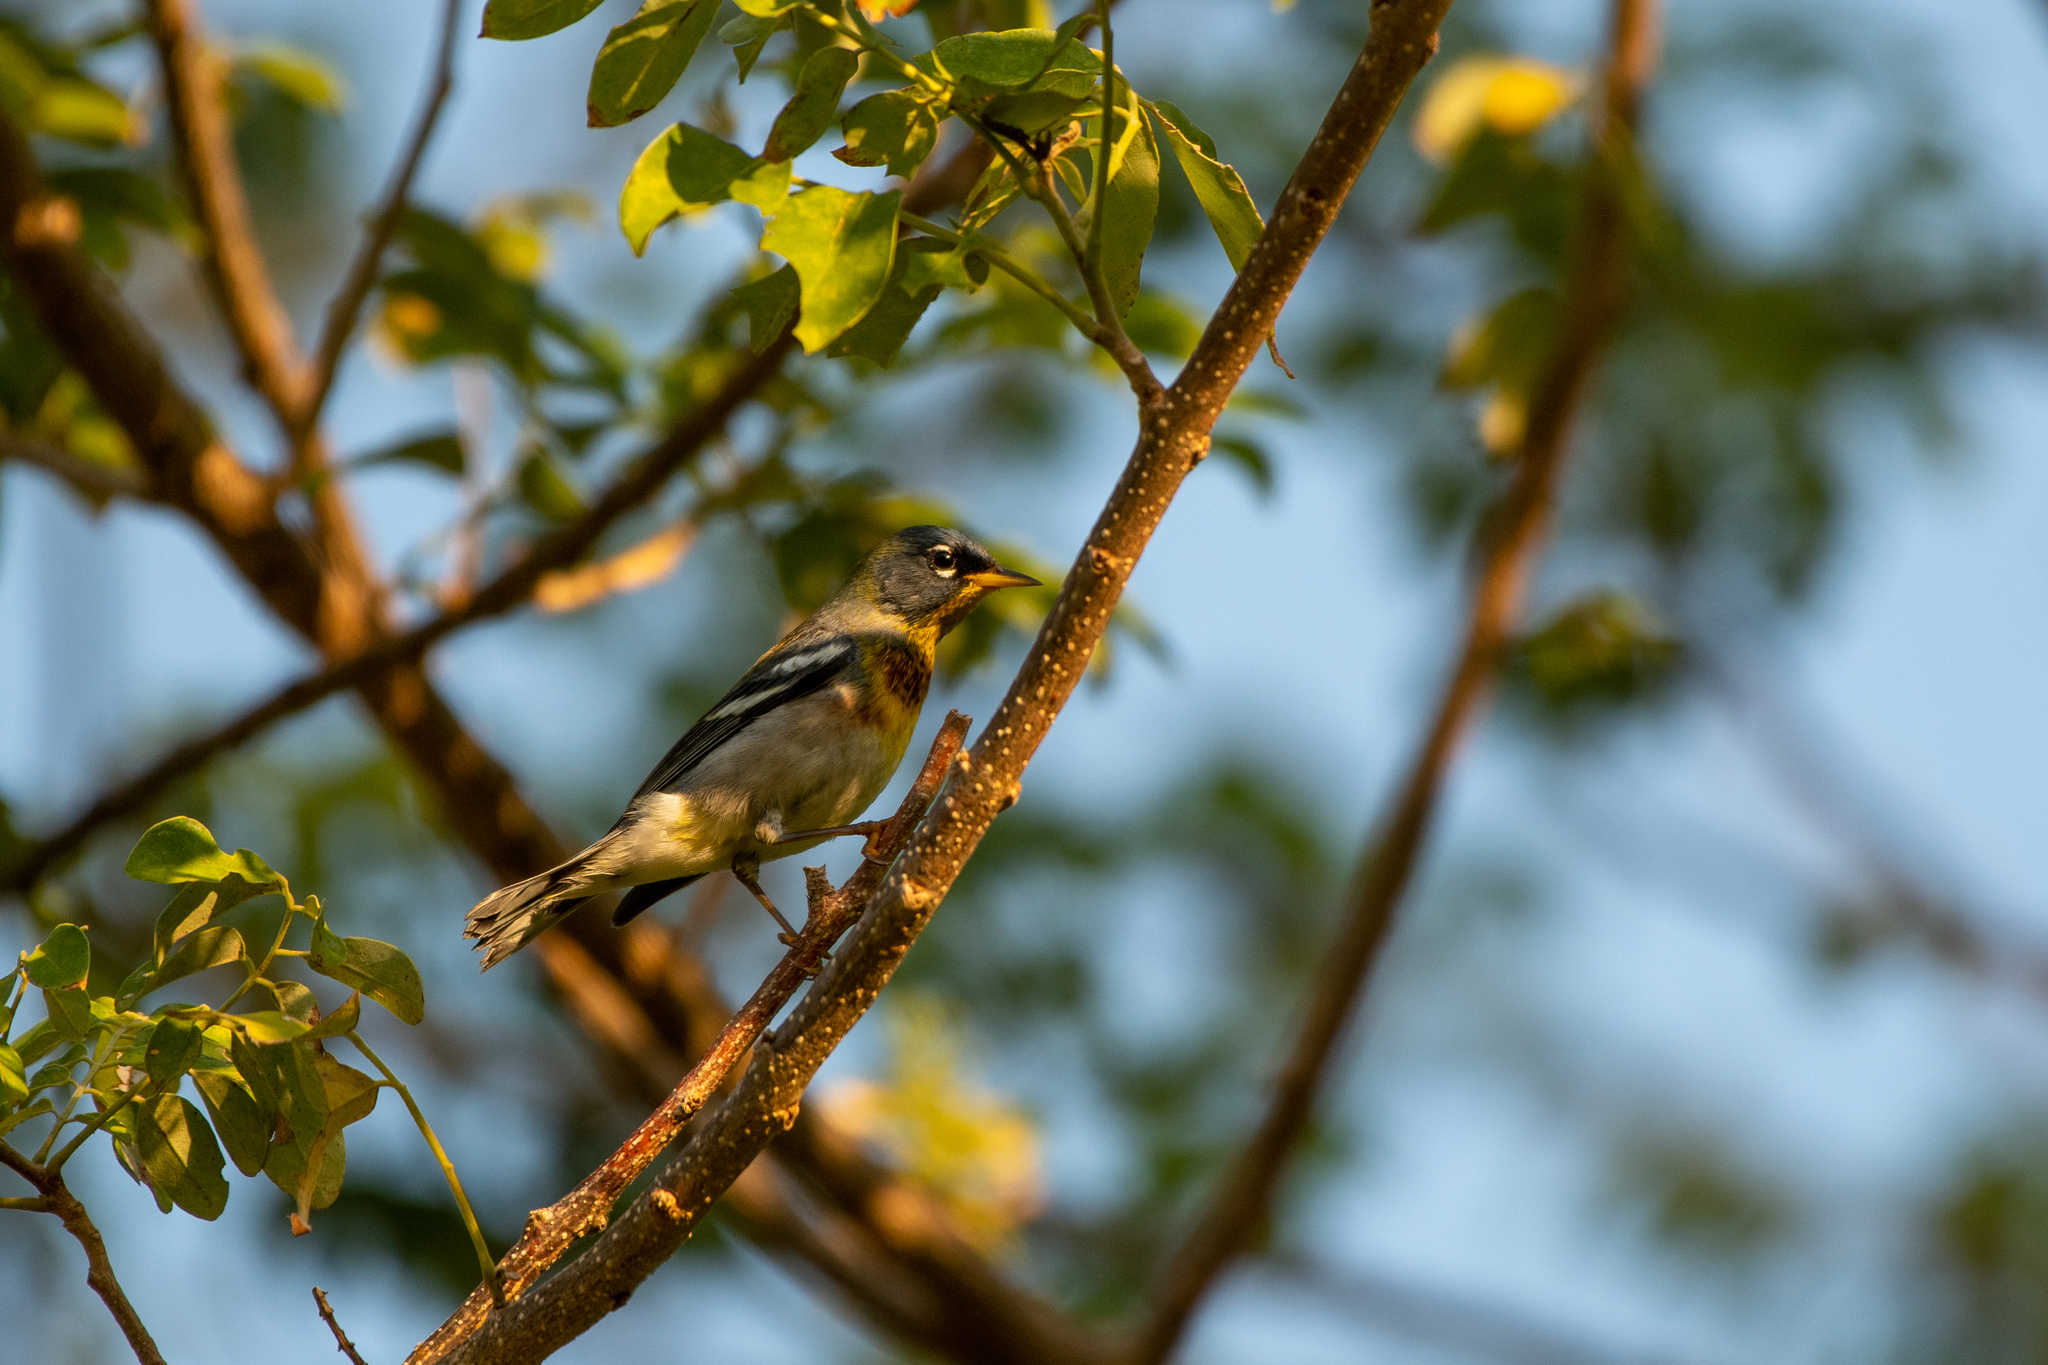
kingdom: Animalia
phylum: Chordata
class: Aves
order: Passeriformes
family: Parulidae
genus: Setophaga
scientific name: Setophaga americana
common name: Northern parula
